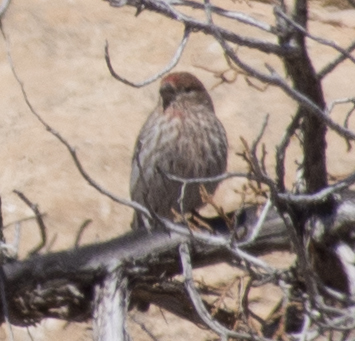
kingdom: Animalia
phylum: Chordata
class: Aves
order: Passeriformes
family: Fringillidae
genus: Haemorhous
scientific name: Haemorhous mexicanus
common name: House finch
